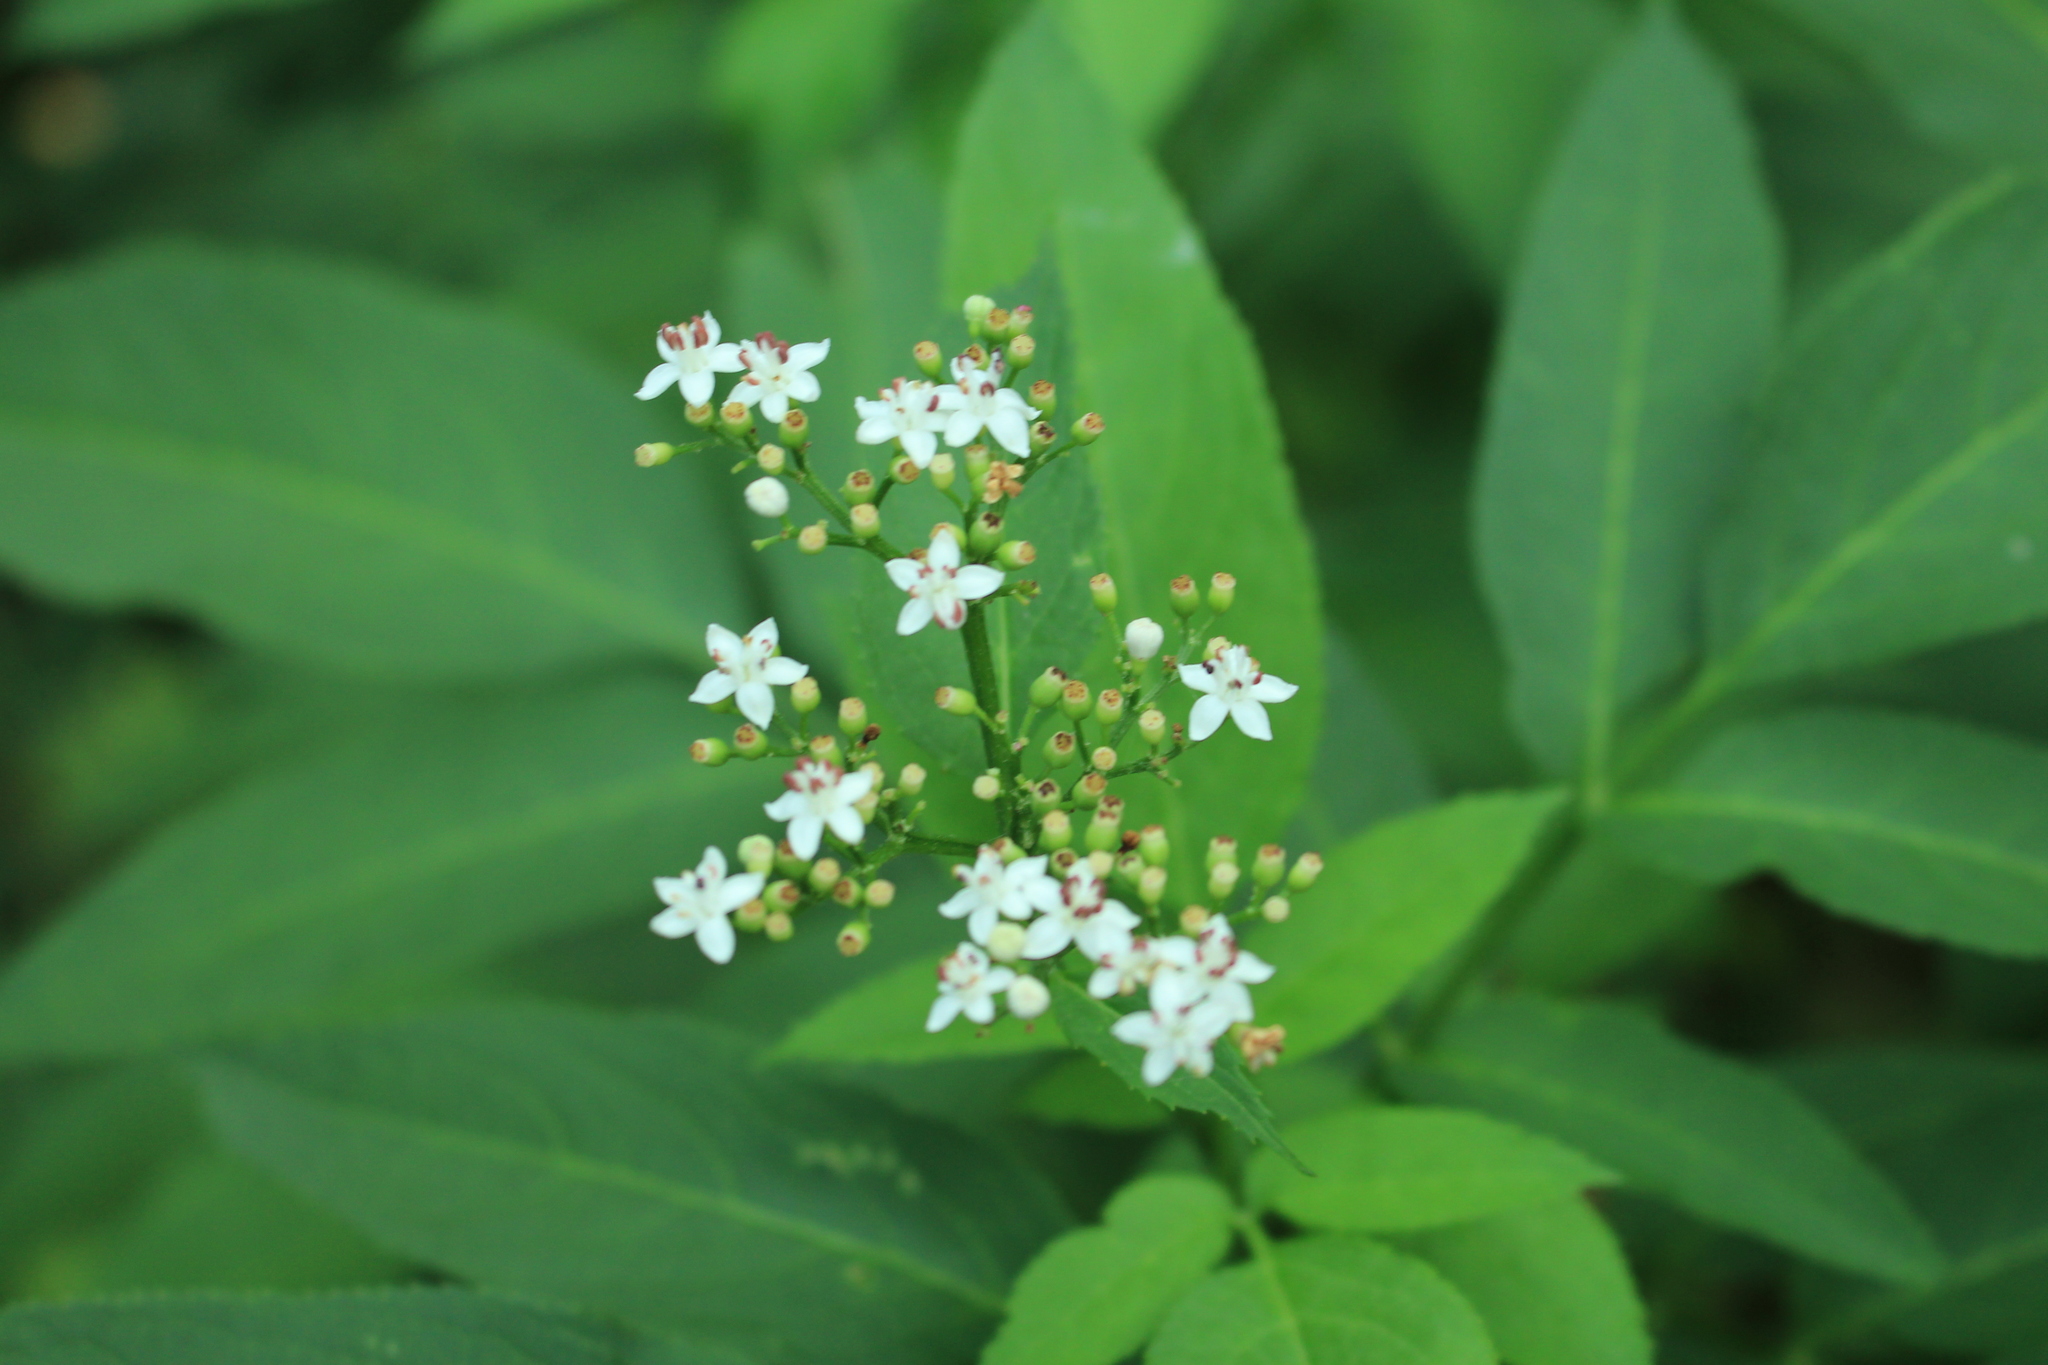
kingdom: Plantae
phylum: Tracheophyta
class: Magnoliopsida
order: Dipsacales
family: Viburnaceae
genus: Sambucus
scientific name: Sambucus ebulus
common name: Dwarf elder
